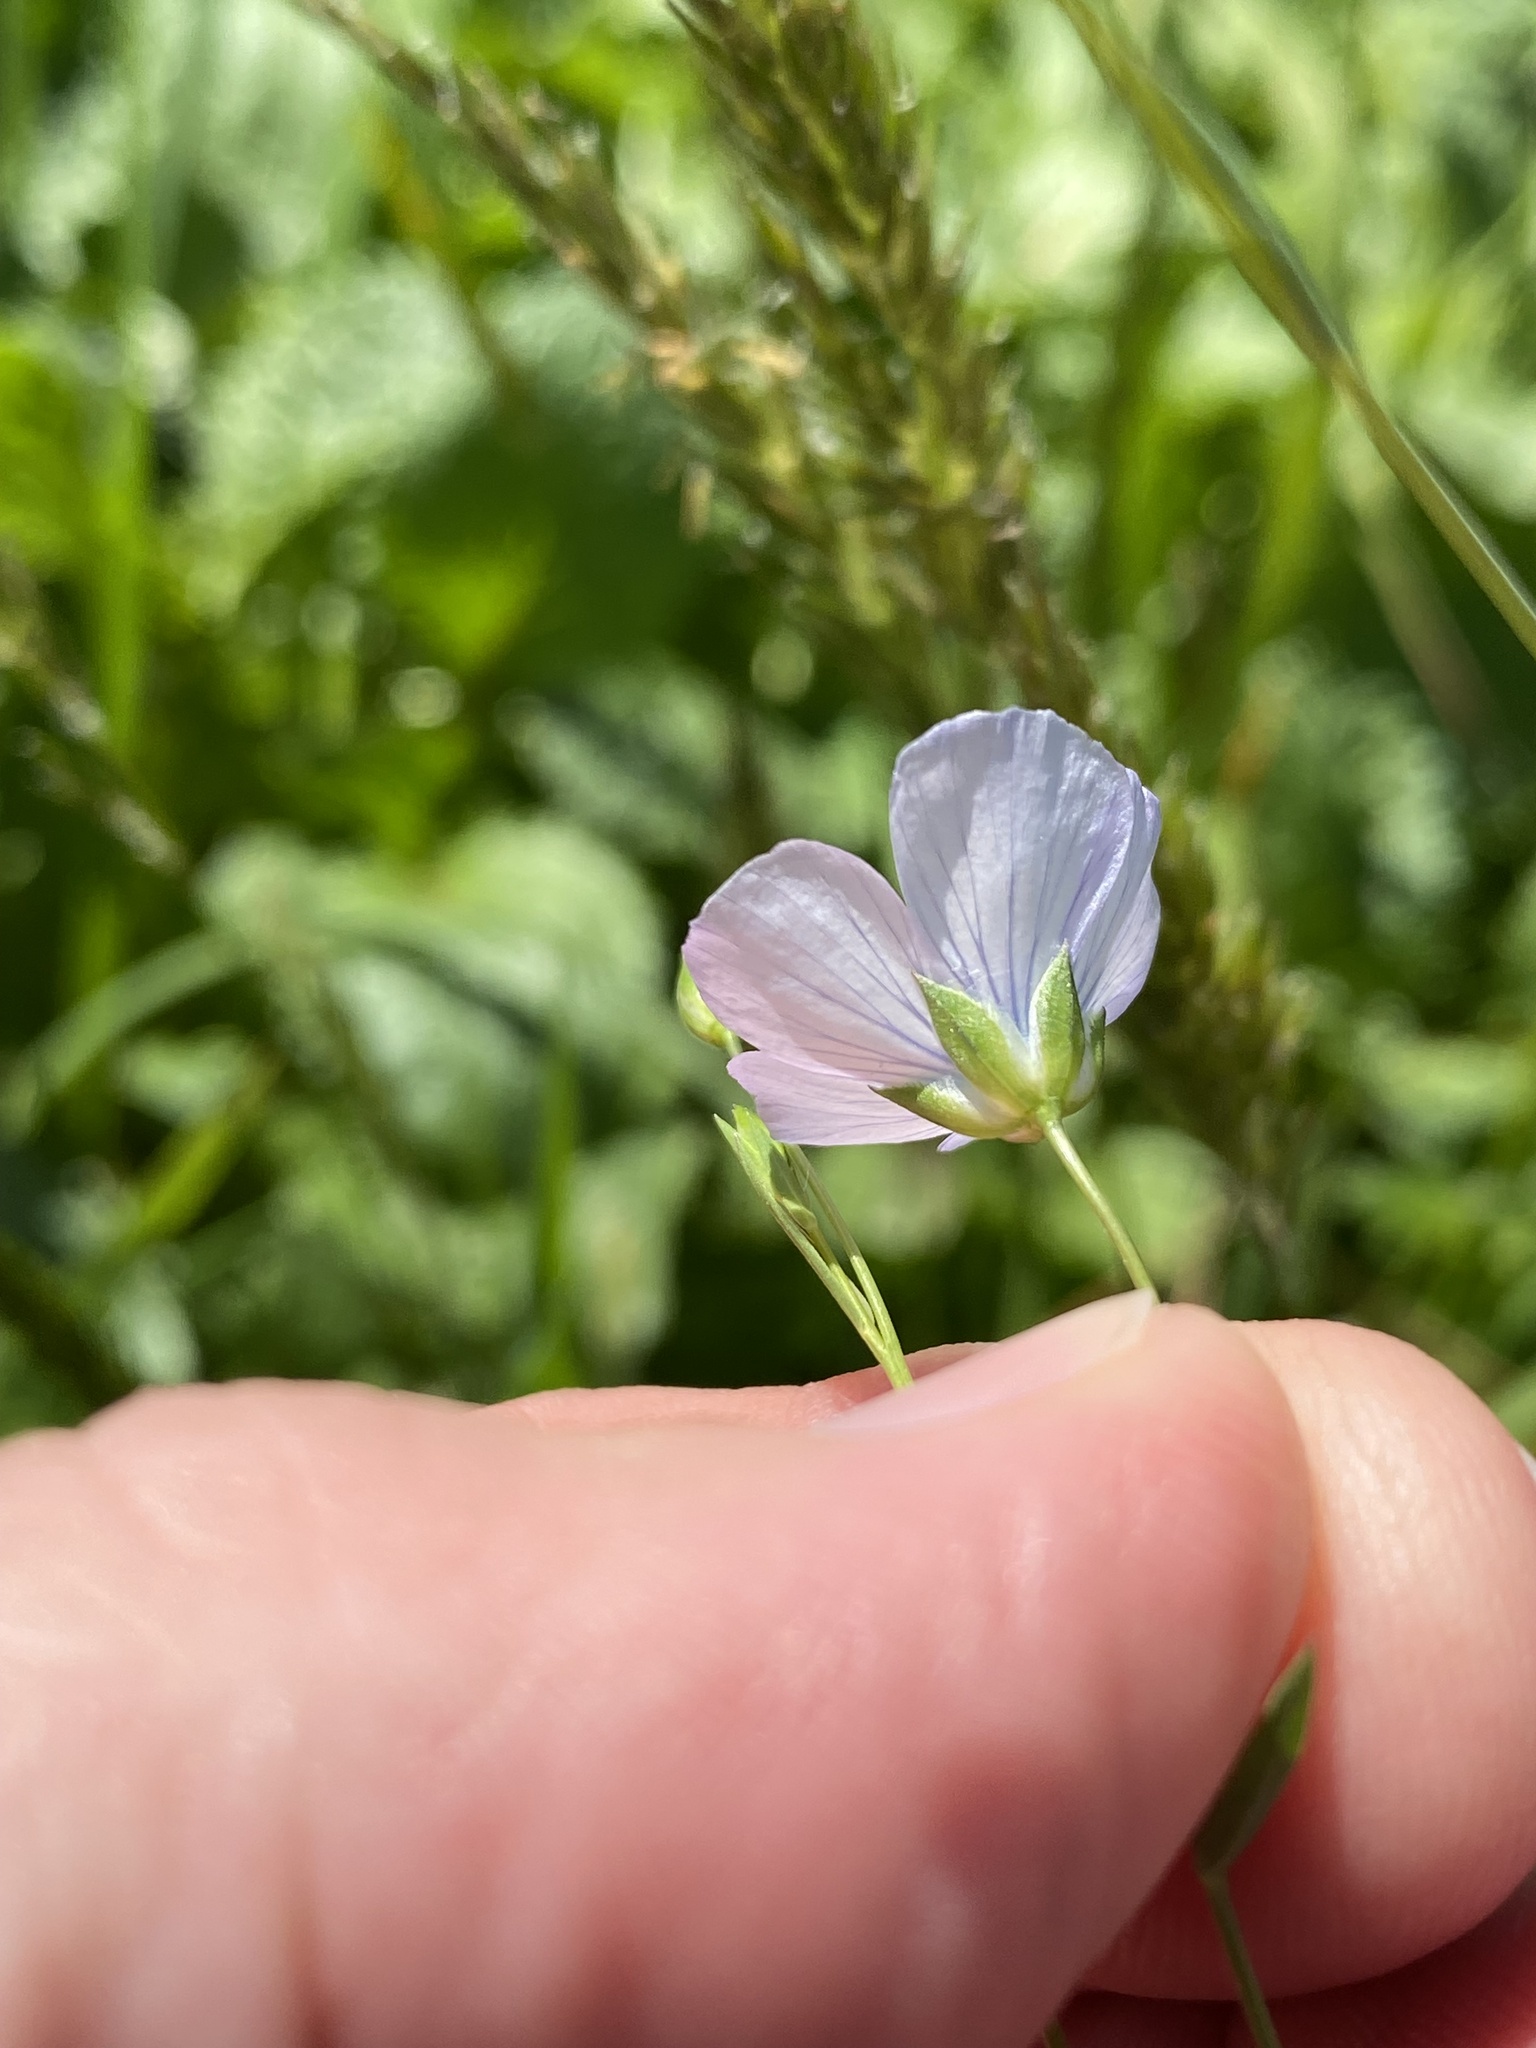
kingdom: Plantae
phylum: Tracheophyta
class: Magnoliopsida
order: Malpighiales
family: Linaceae
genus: Linum
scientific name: Linum bienne
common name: Pale flax
